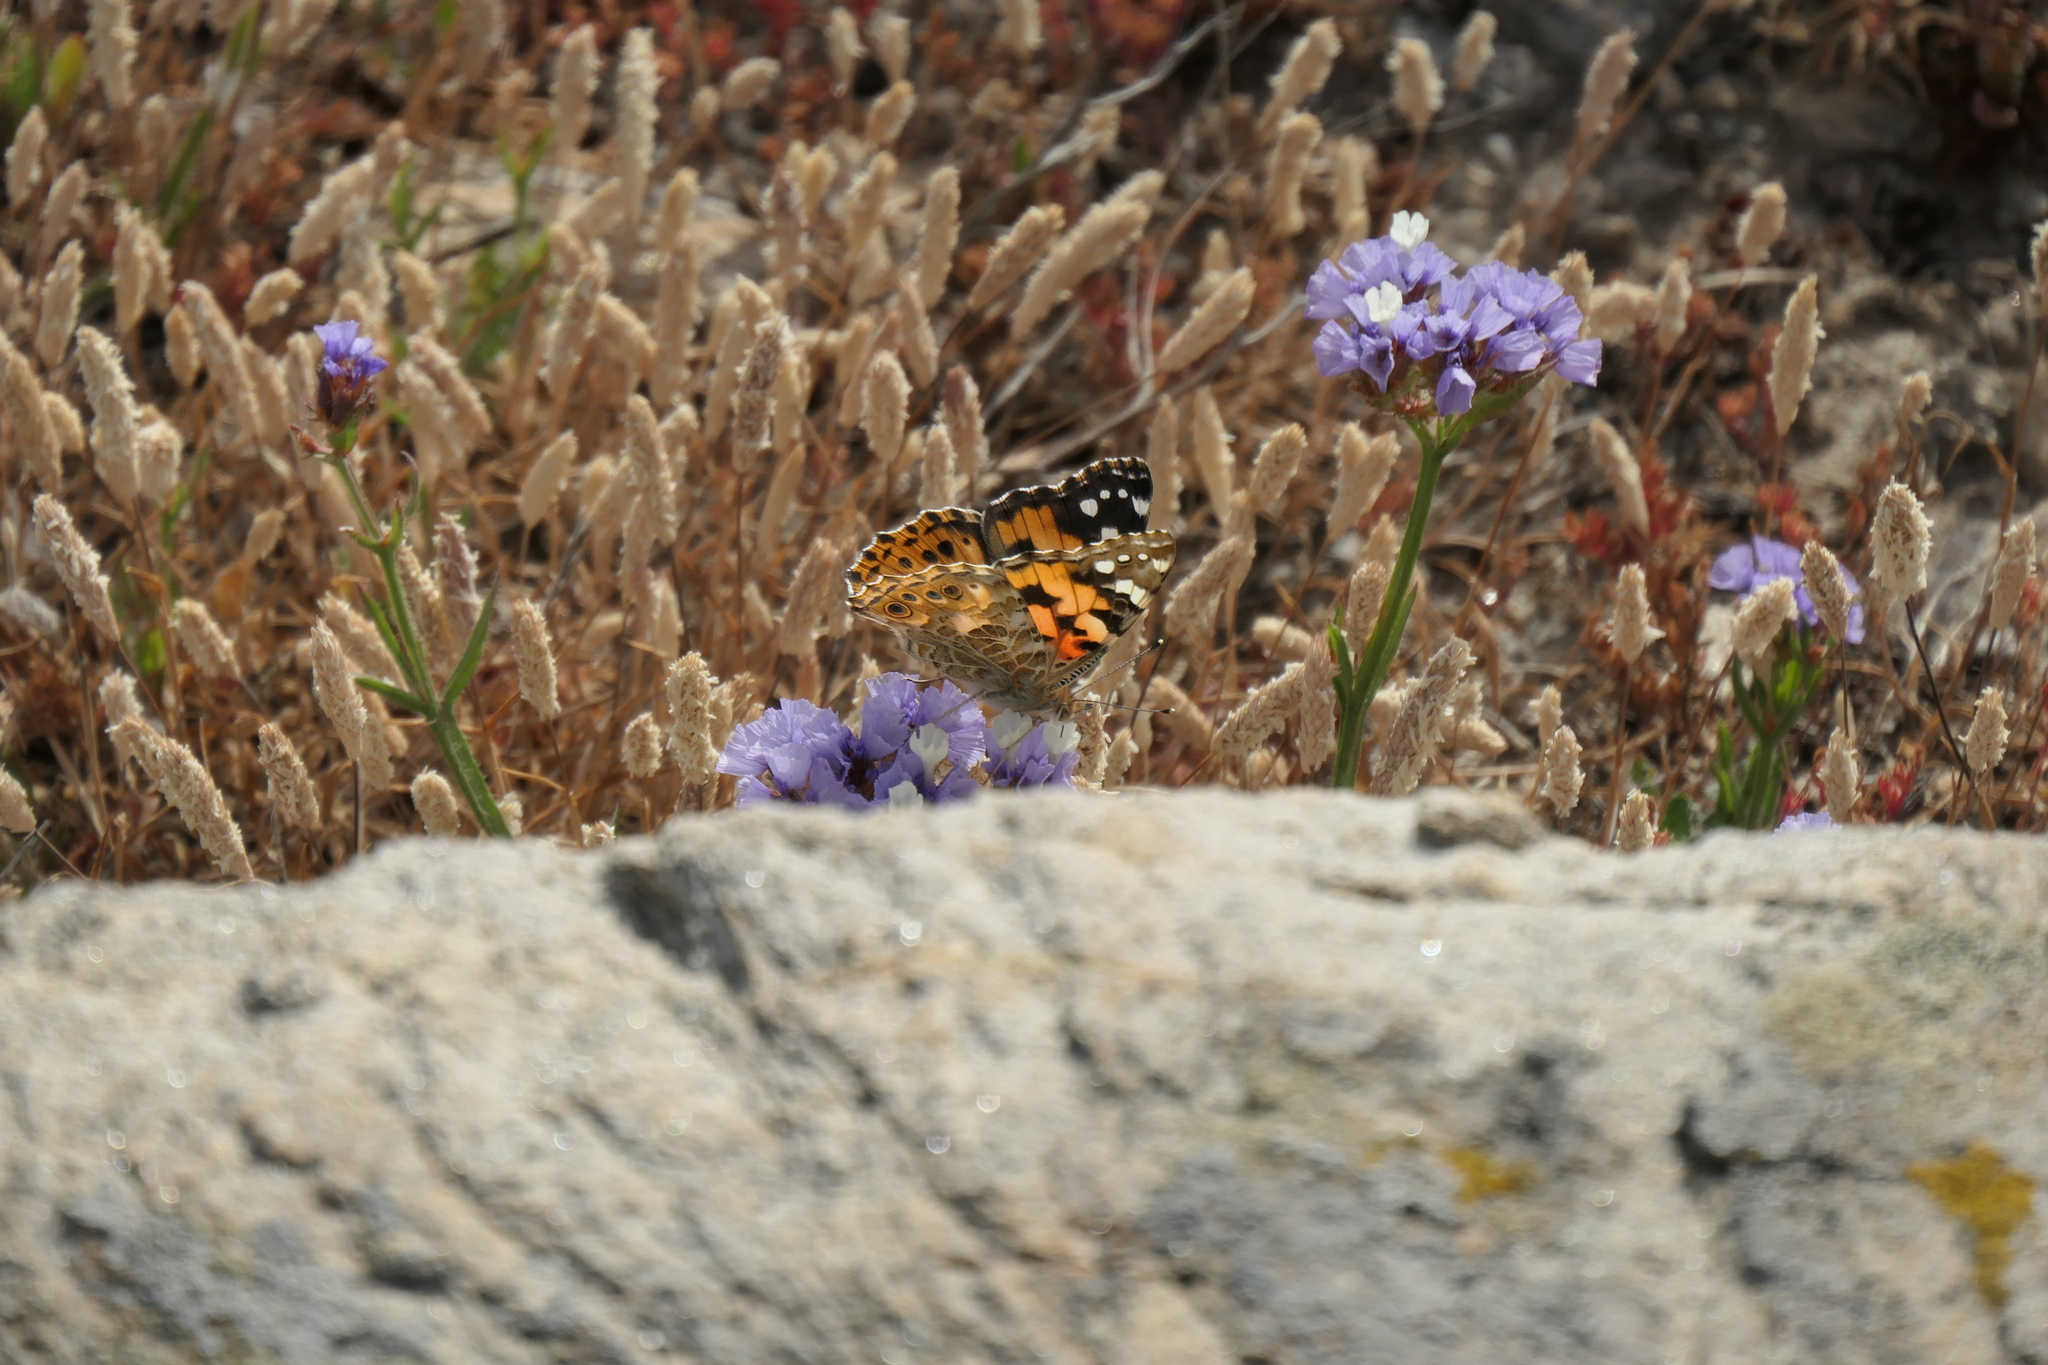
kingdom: Animalia
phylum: Arthropoda
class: Insecta
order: Lepidoptera
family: Nymphalidae
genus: Vanessa
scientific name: Vanessa cardui
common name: Painted lady
